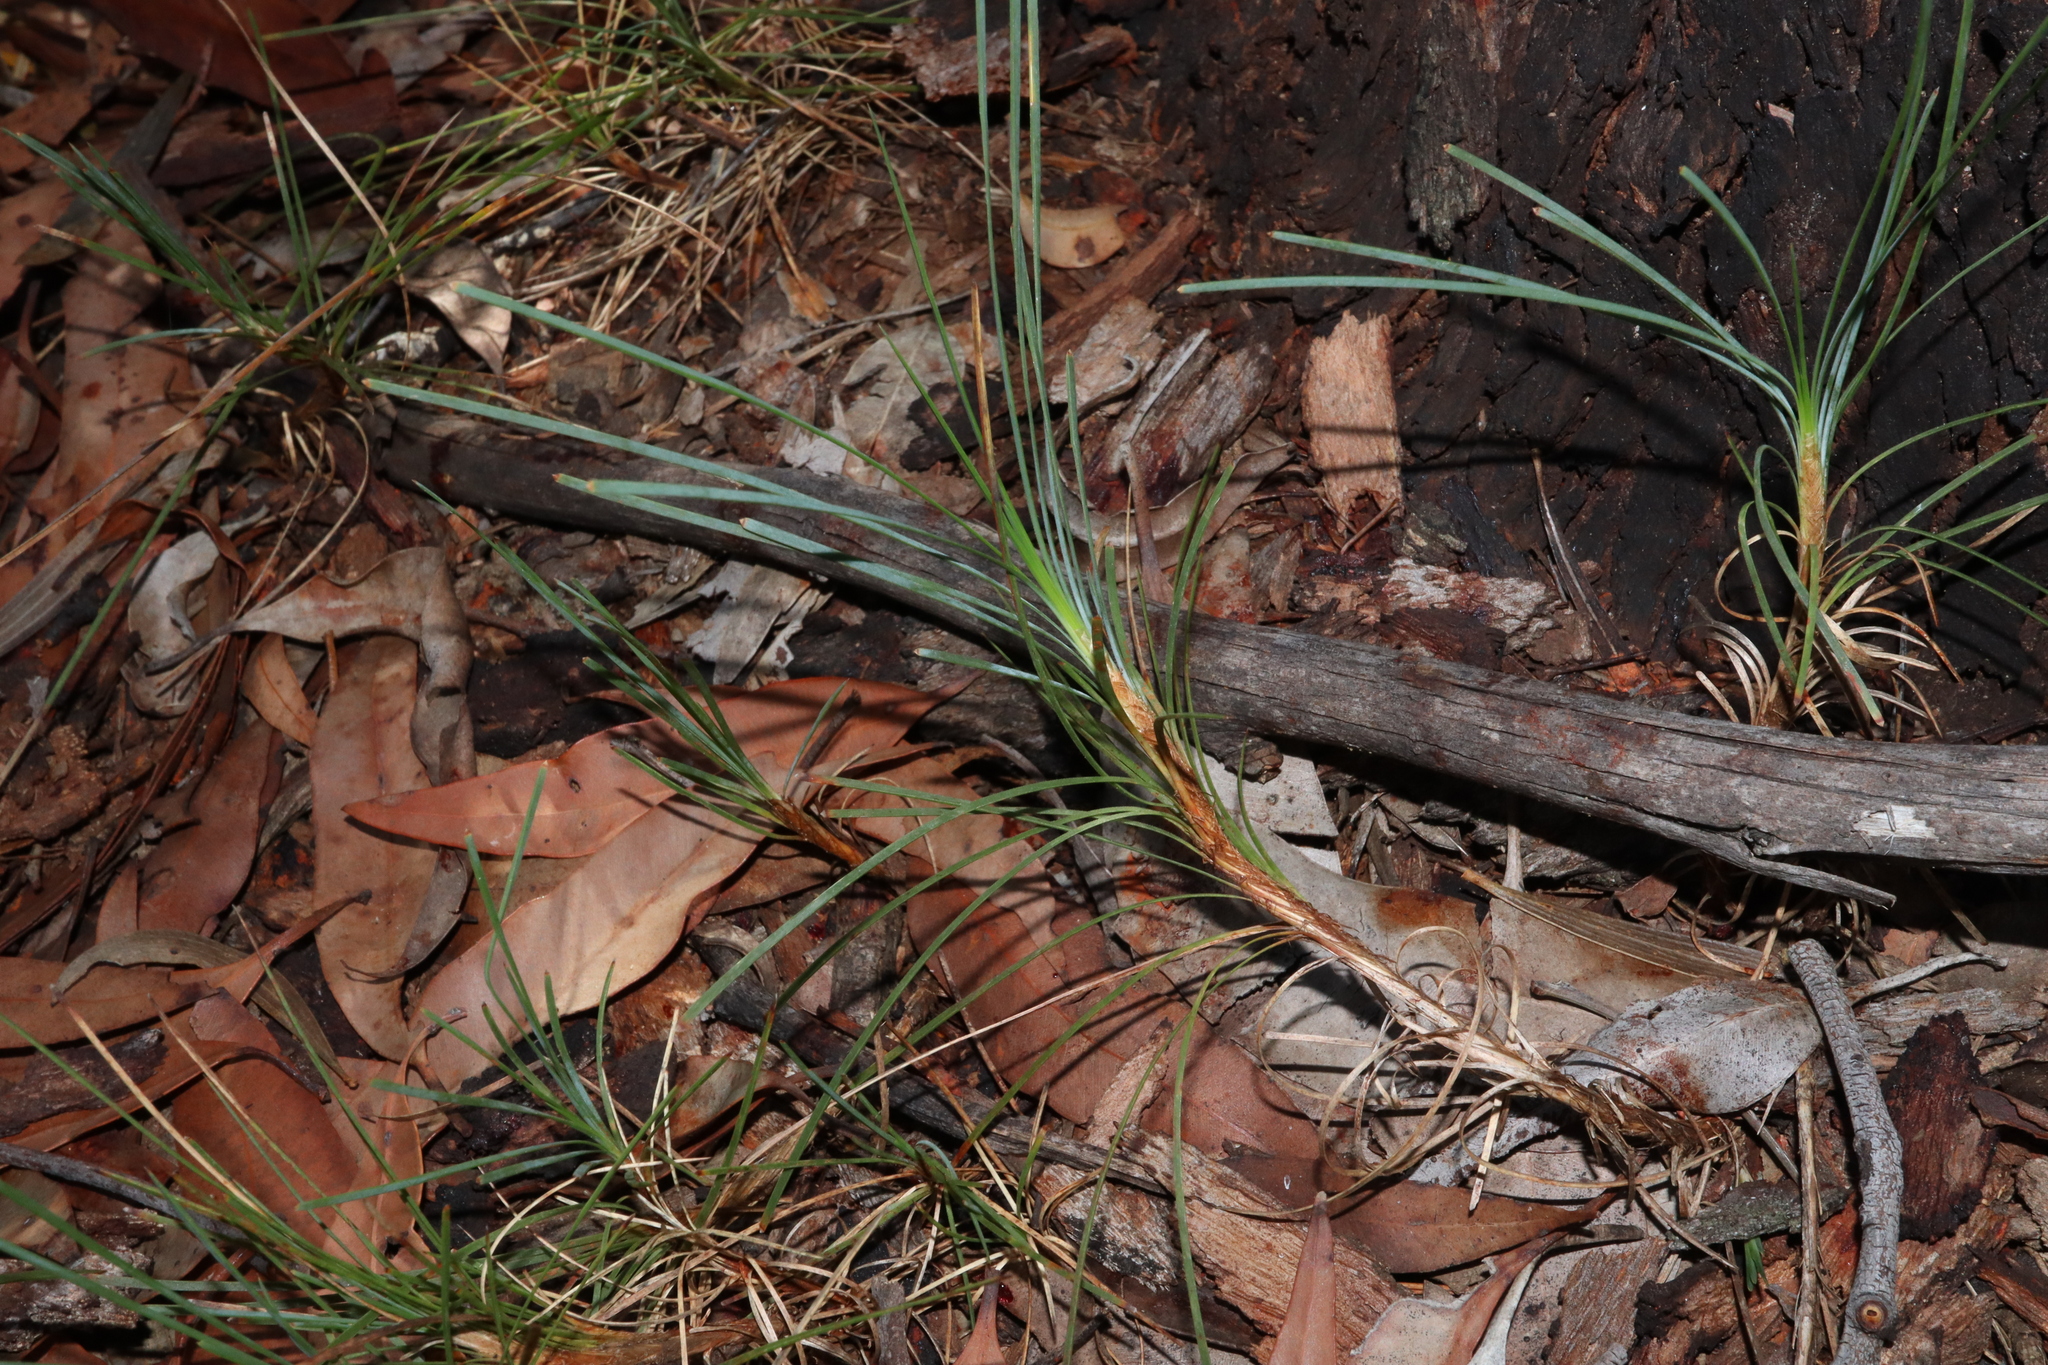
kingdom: Plantae
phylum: Tracheophyta
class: Liliopsida
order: Asparagales
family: Asparagaceae
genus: Lomandra
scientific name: Lomandra glauca
